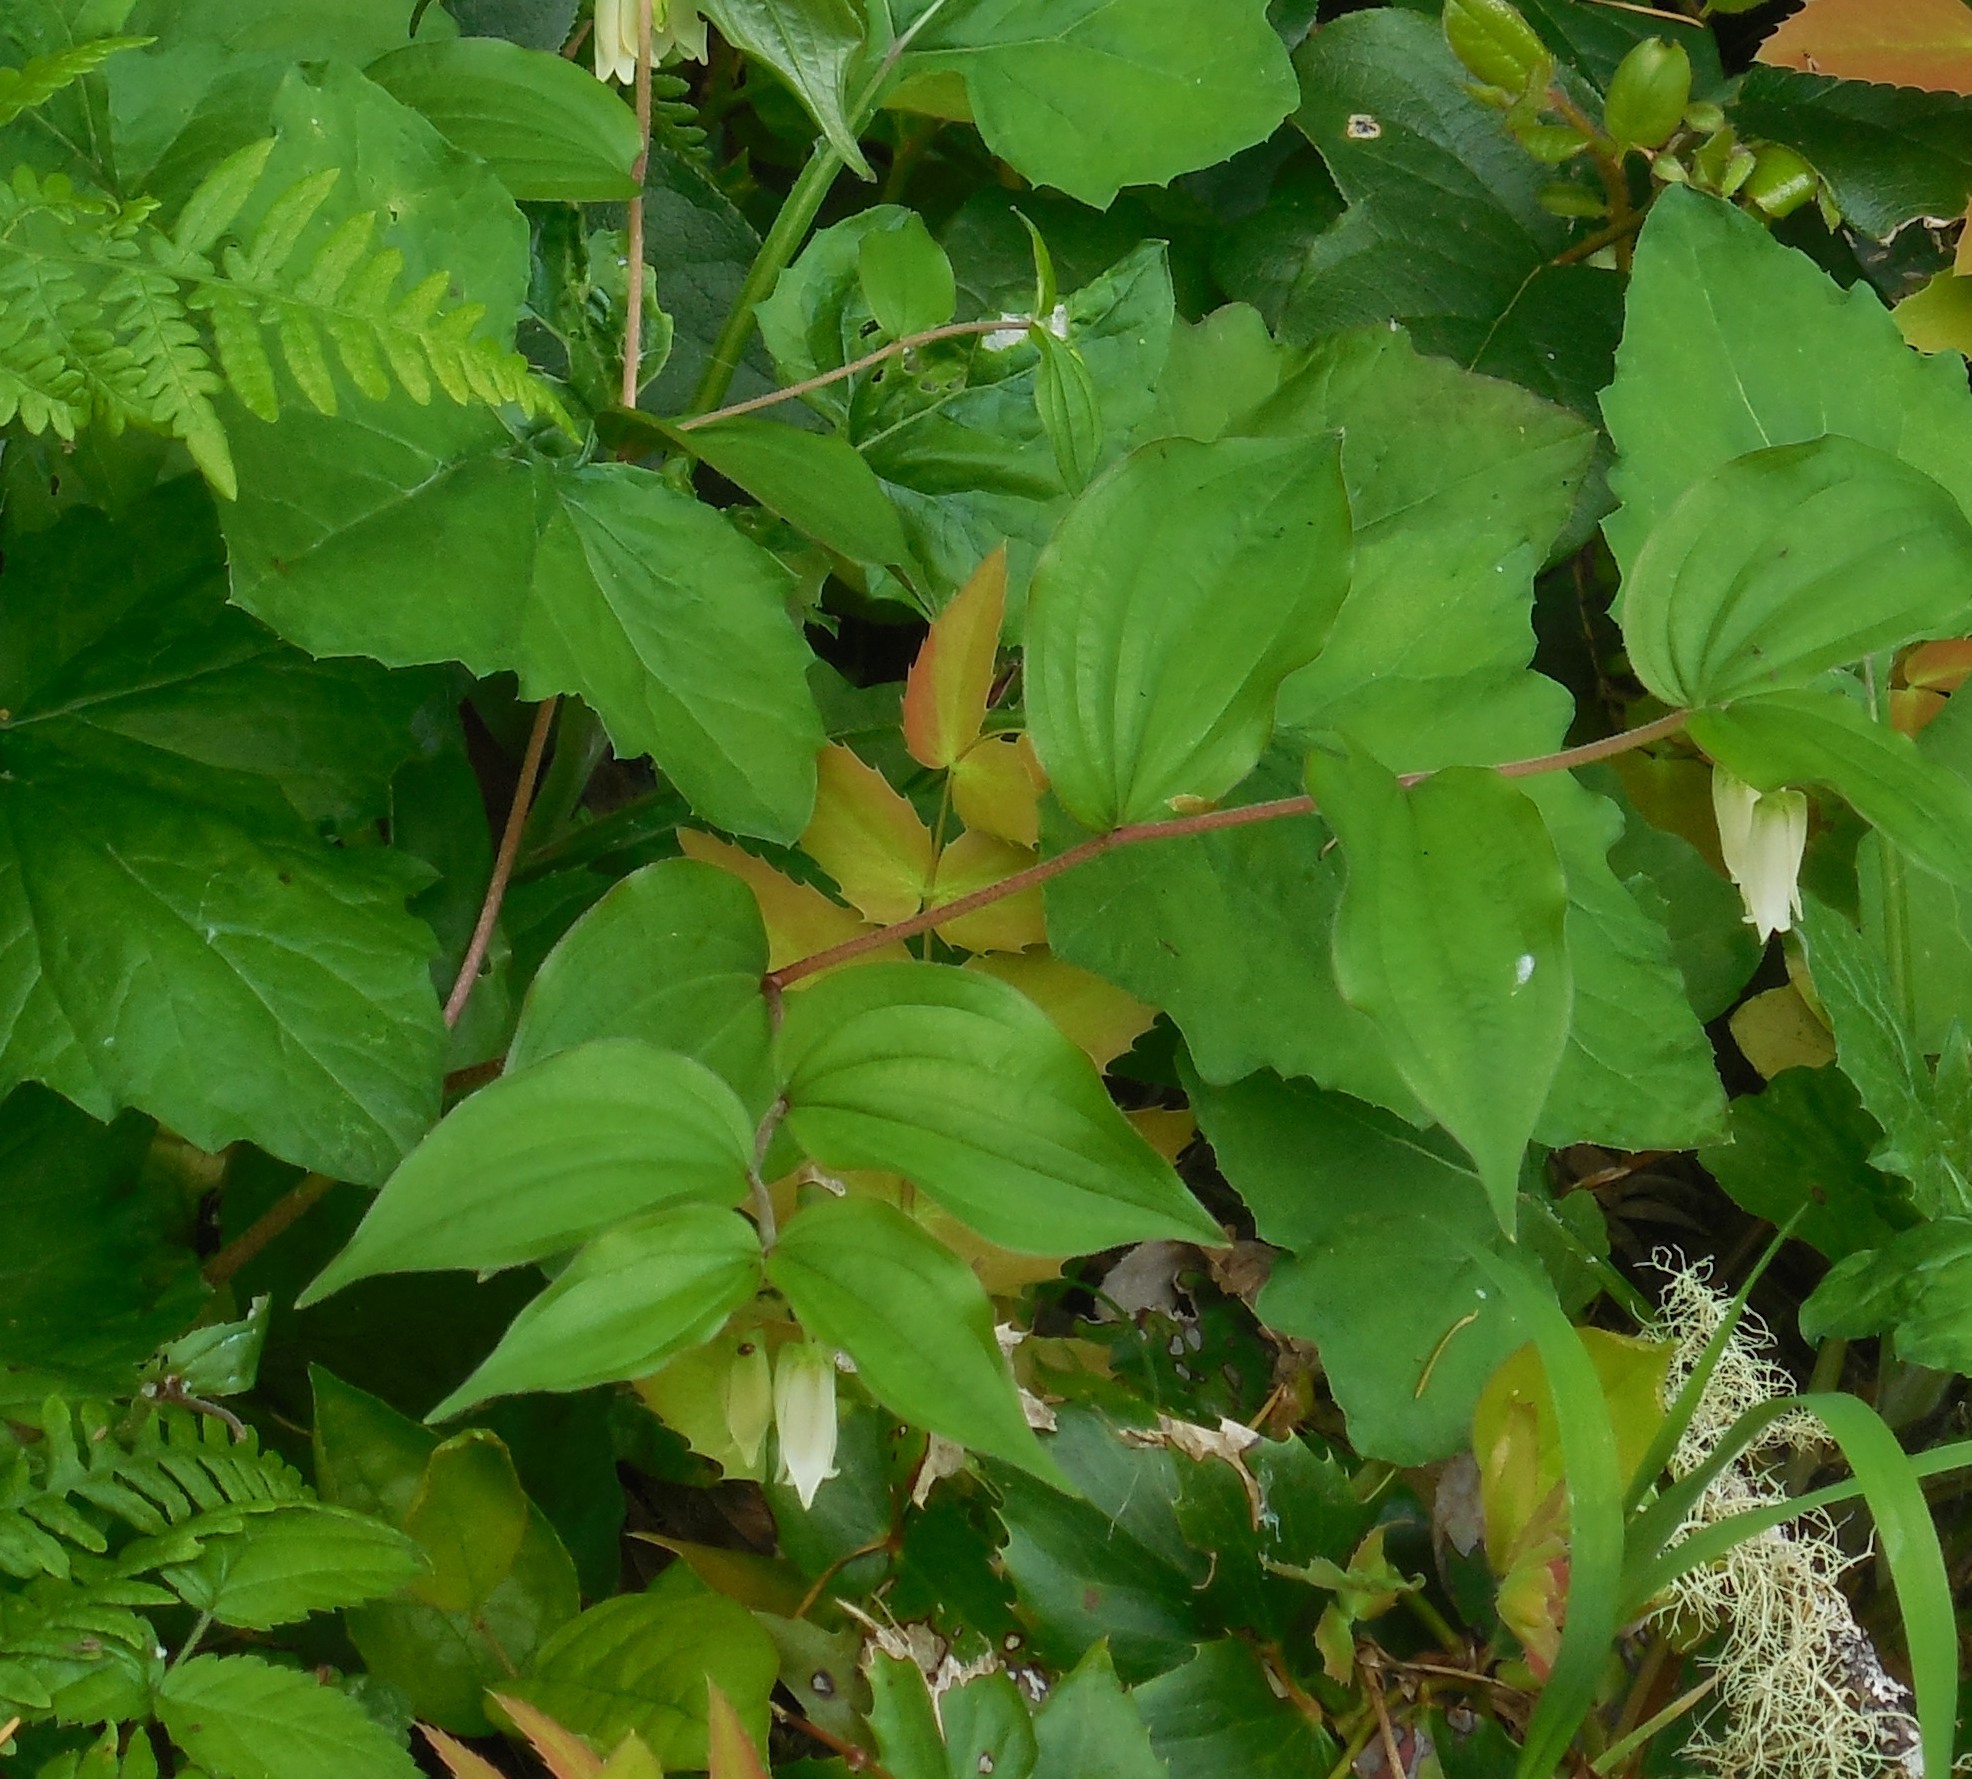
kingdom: Plantae
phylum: Tracheophyta
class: Liliopsida
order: Liliales
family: Liliaceae
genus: Prosartes
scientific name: Prosartes smithii
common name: Fairy-lantern
